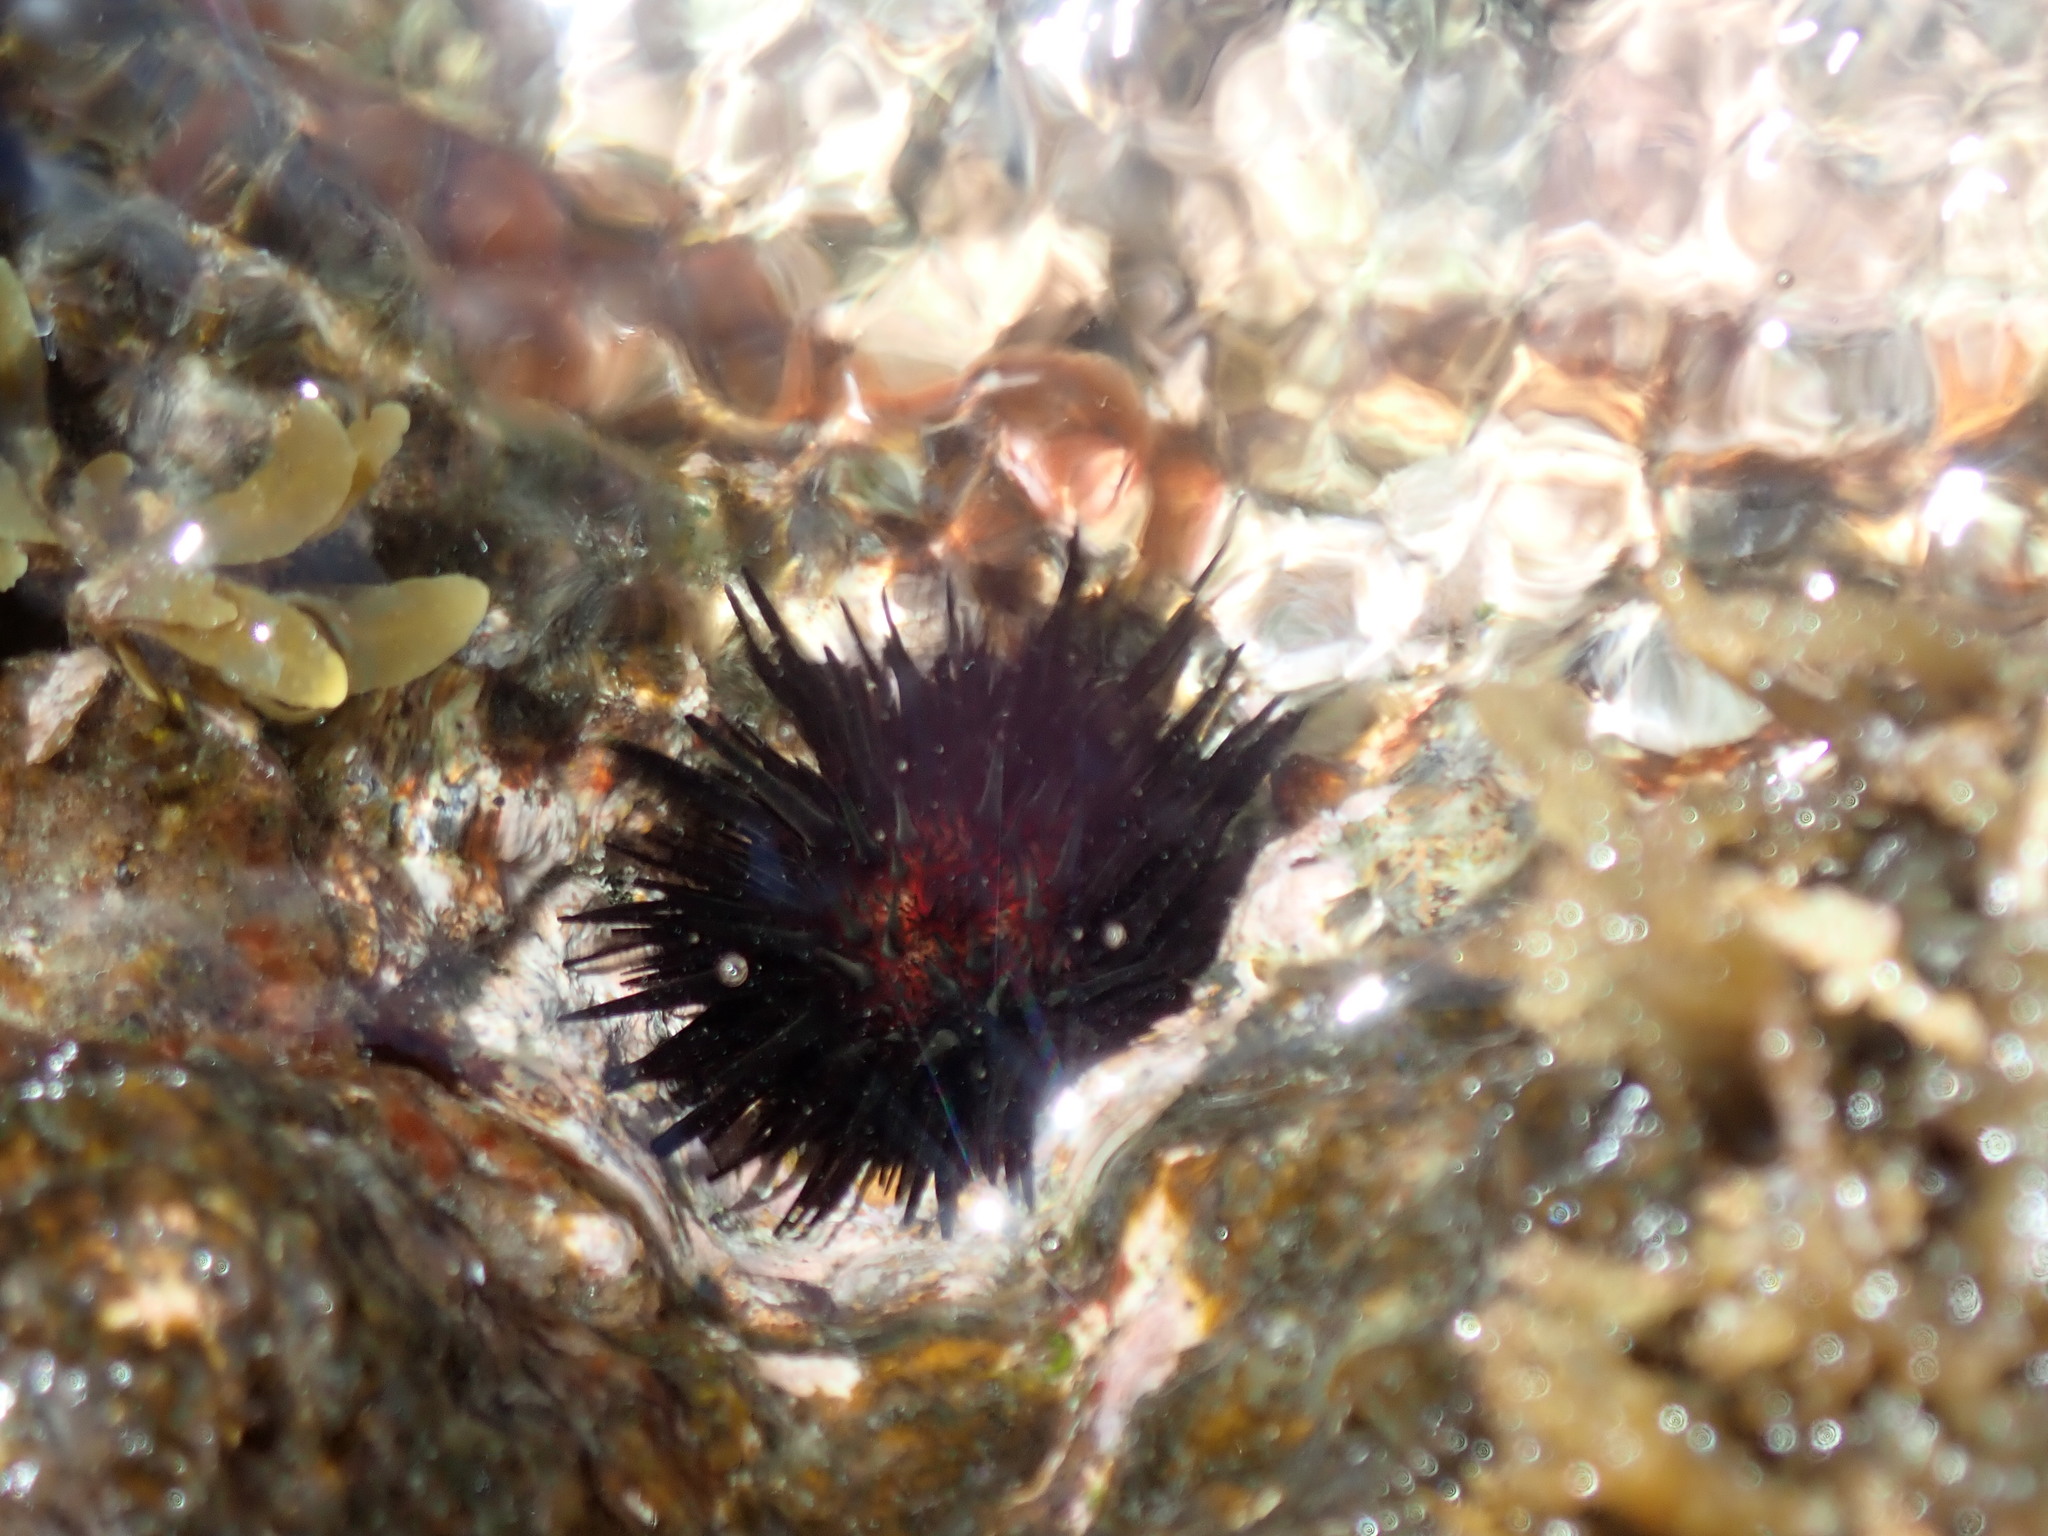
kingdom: Animalia
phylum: Echinodermata
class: Echinoidea
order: Camarodonta
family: Echinometridae
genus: Echinometra
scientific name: Echinometra lucunter
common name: Rock urchin
